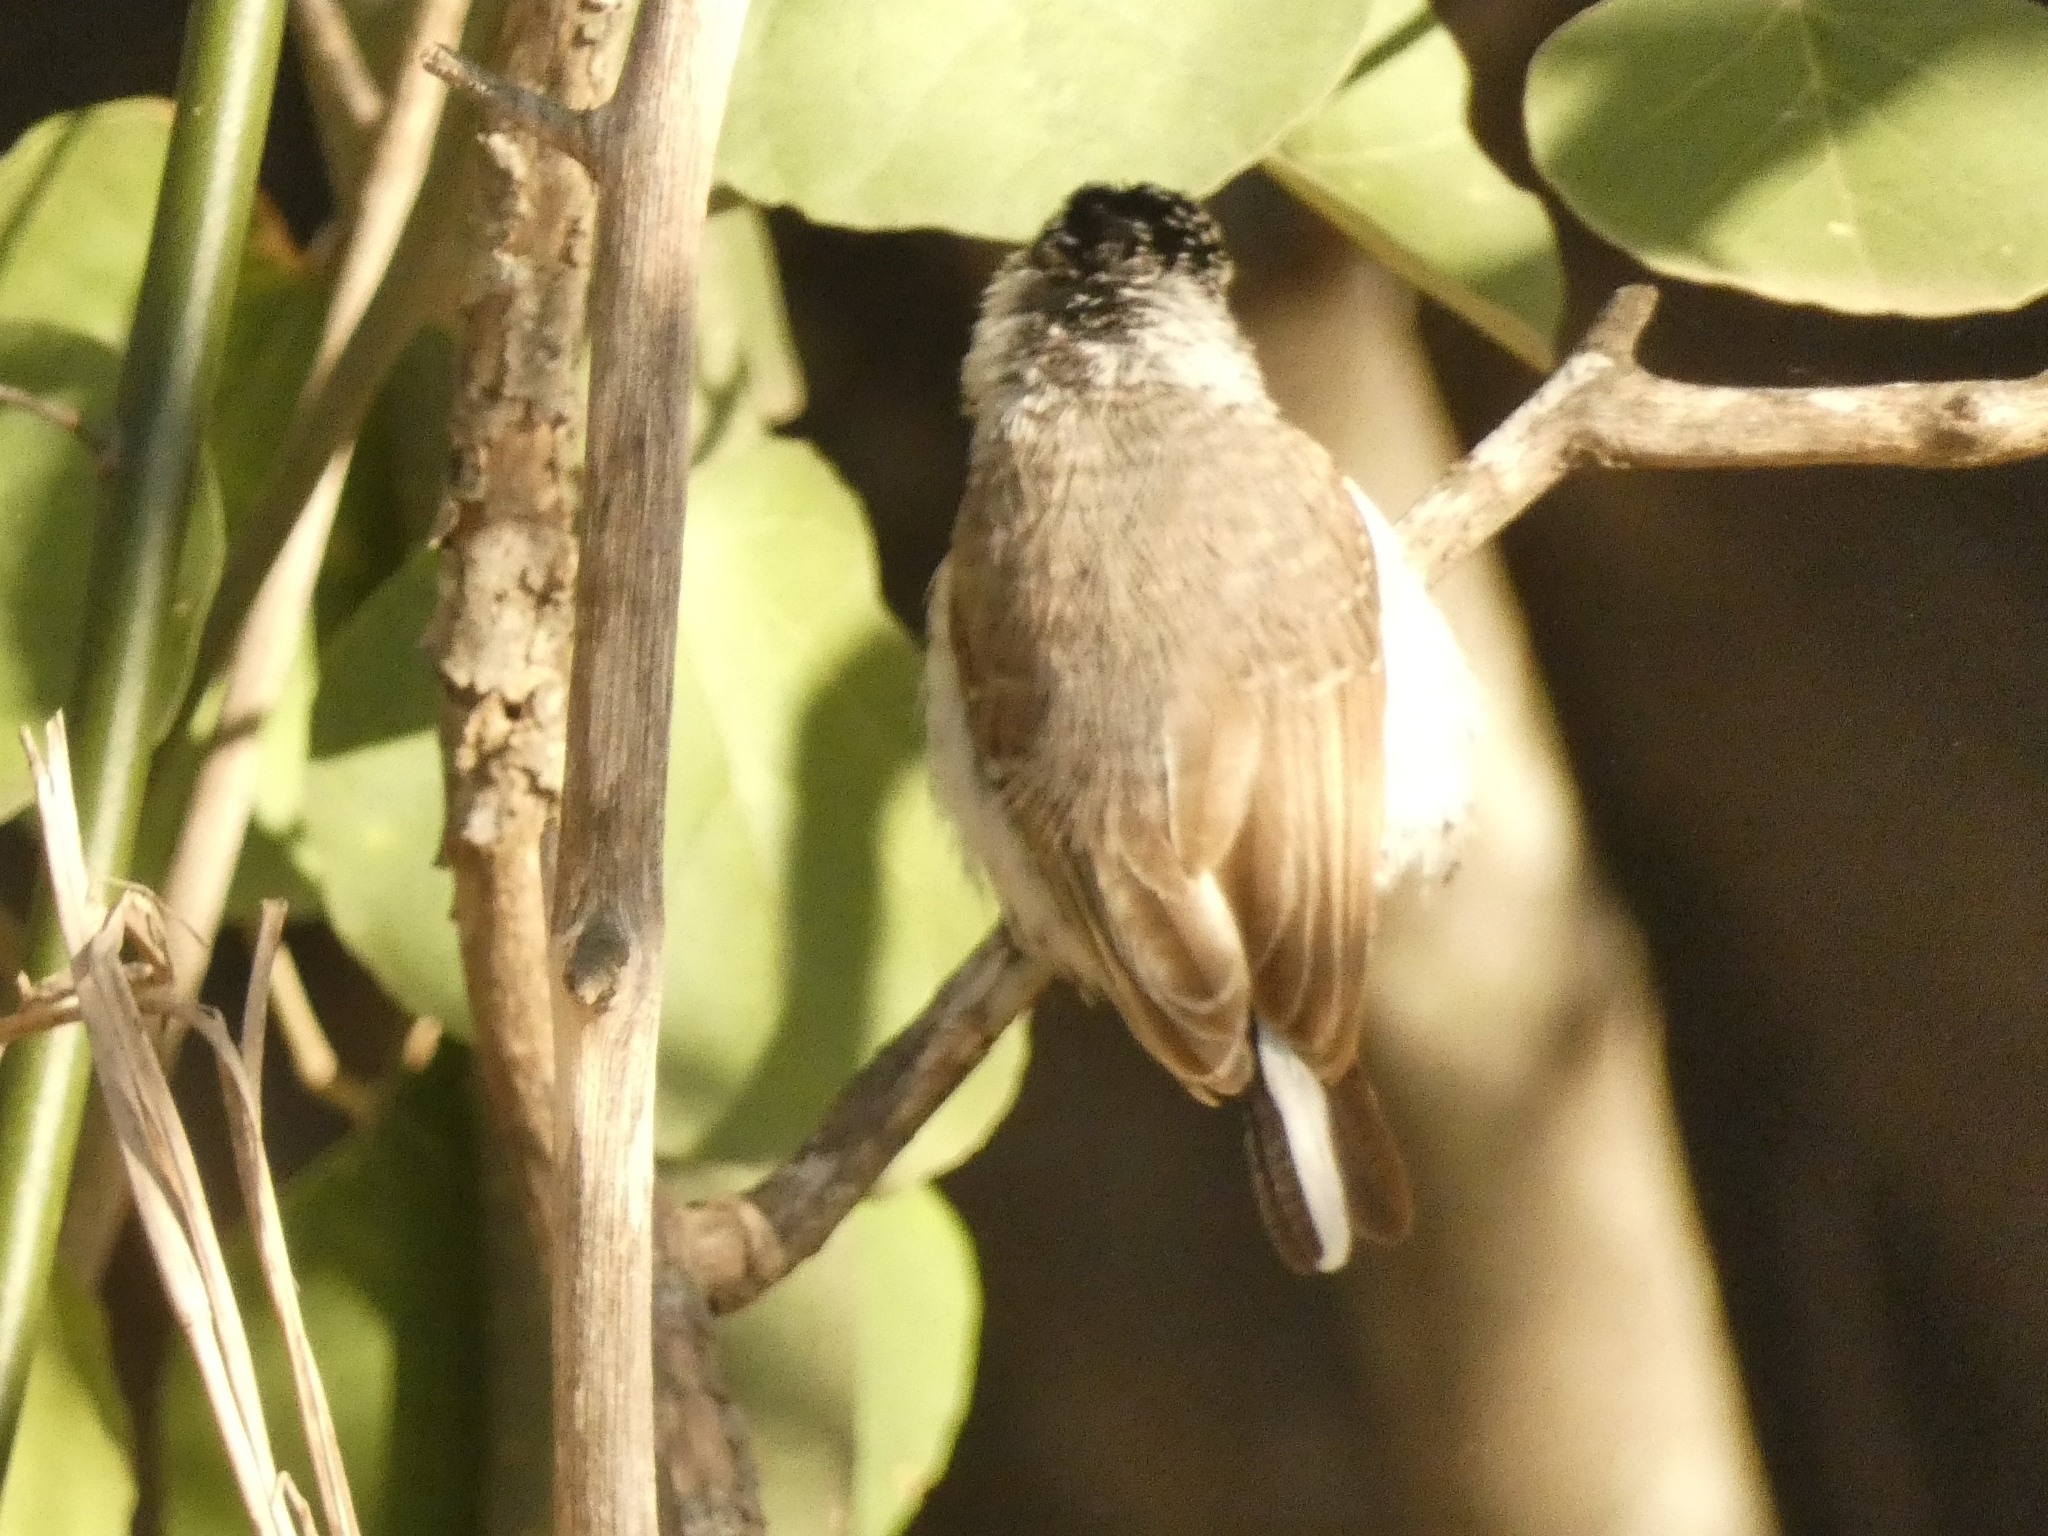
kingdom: Animalia
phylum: Chordata
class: Aves
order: Piciformes
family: Picidae
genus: Picumnus
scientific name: Picumnus cirratus
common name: White-barred piculet
